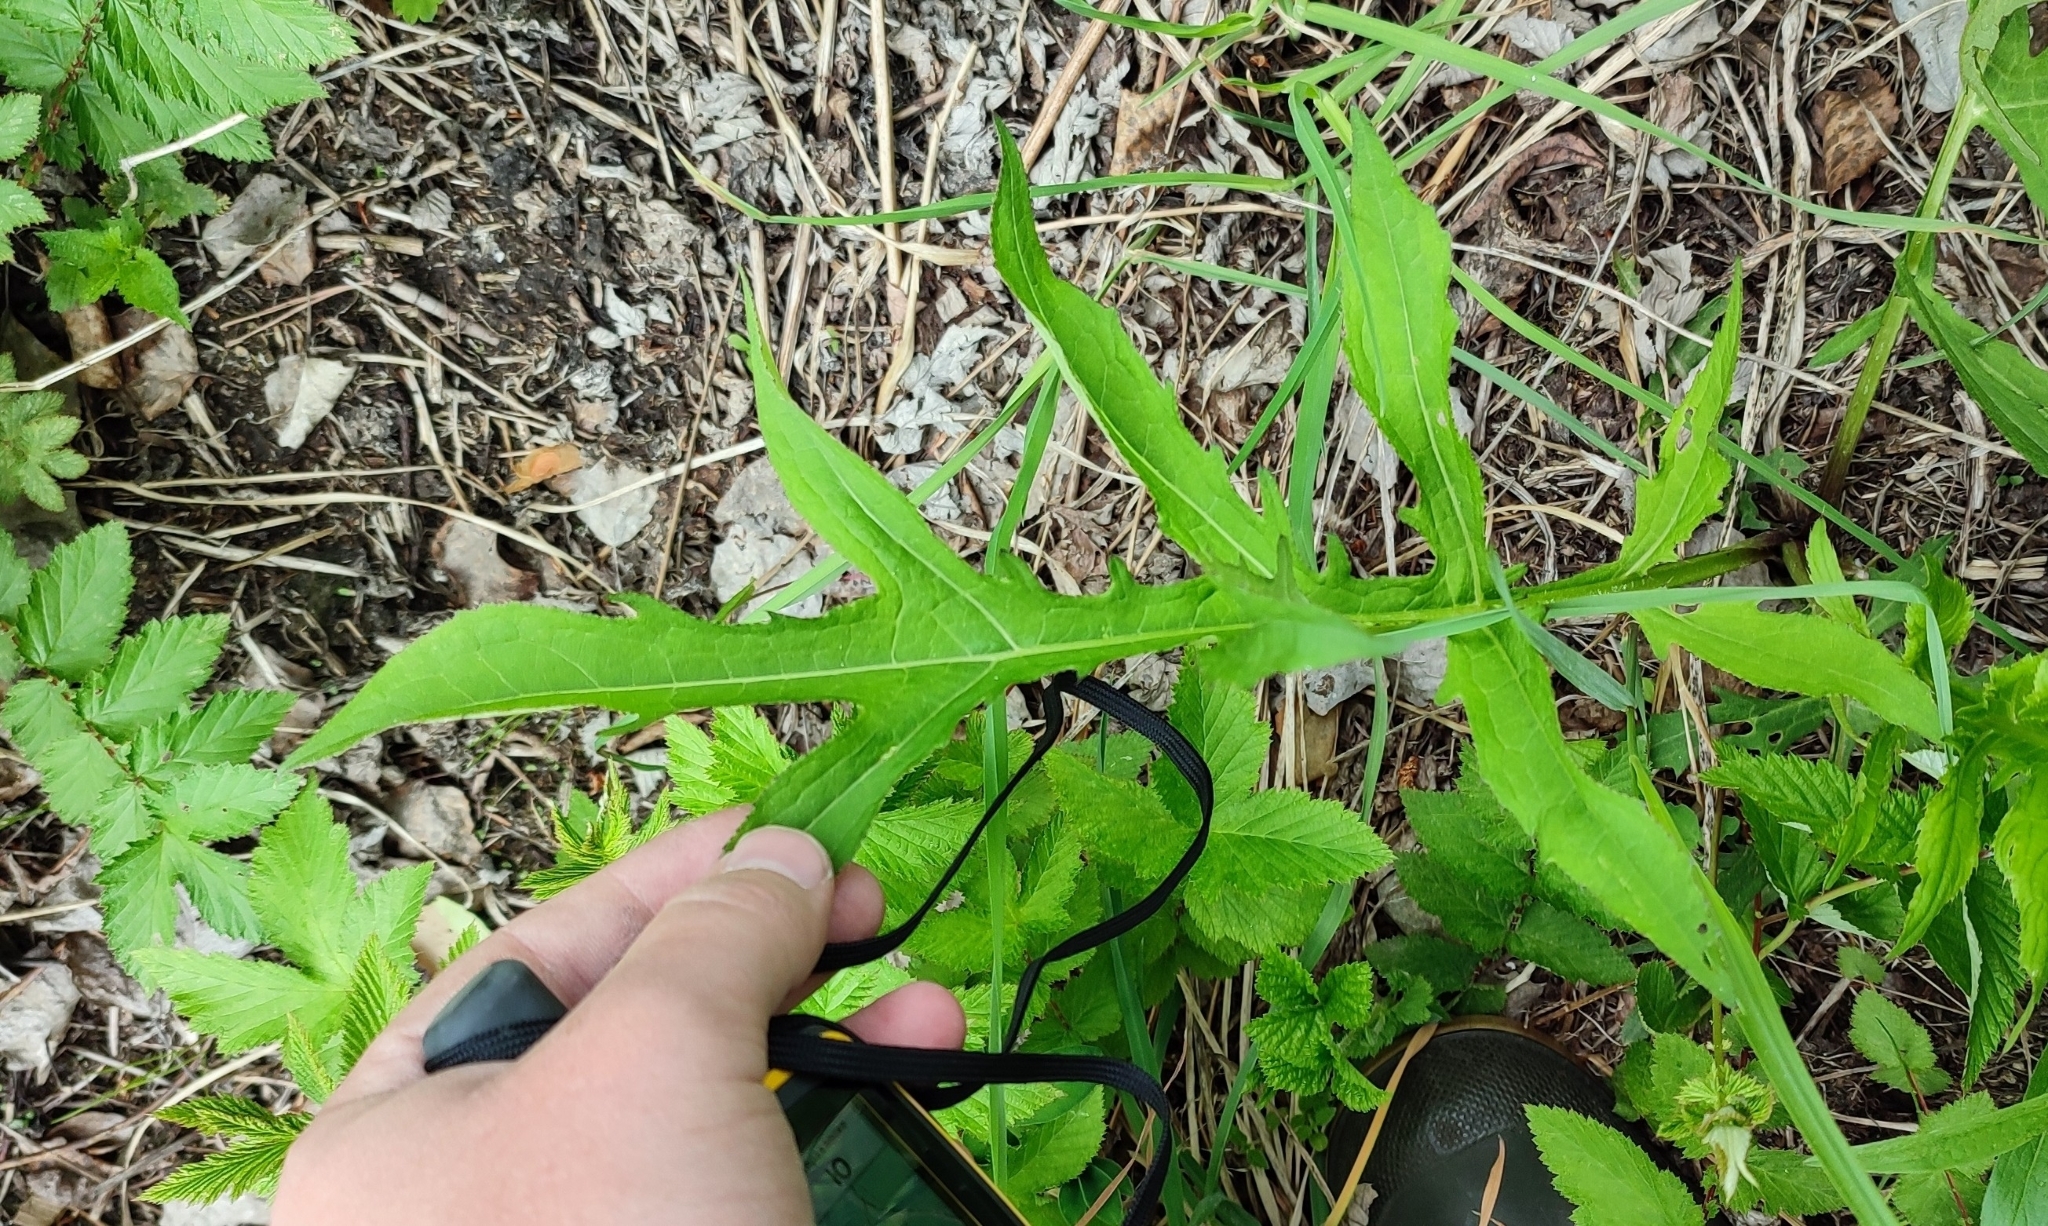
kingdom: Plantae
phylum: Tracheophyta
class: Magnoliopsida
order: Asterales
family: Asteraceae
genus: Cirsium
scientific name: Cirsium oleraceum
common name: Cabbage thistle
